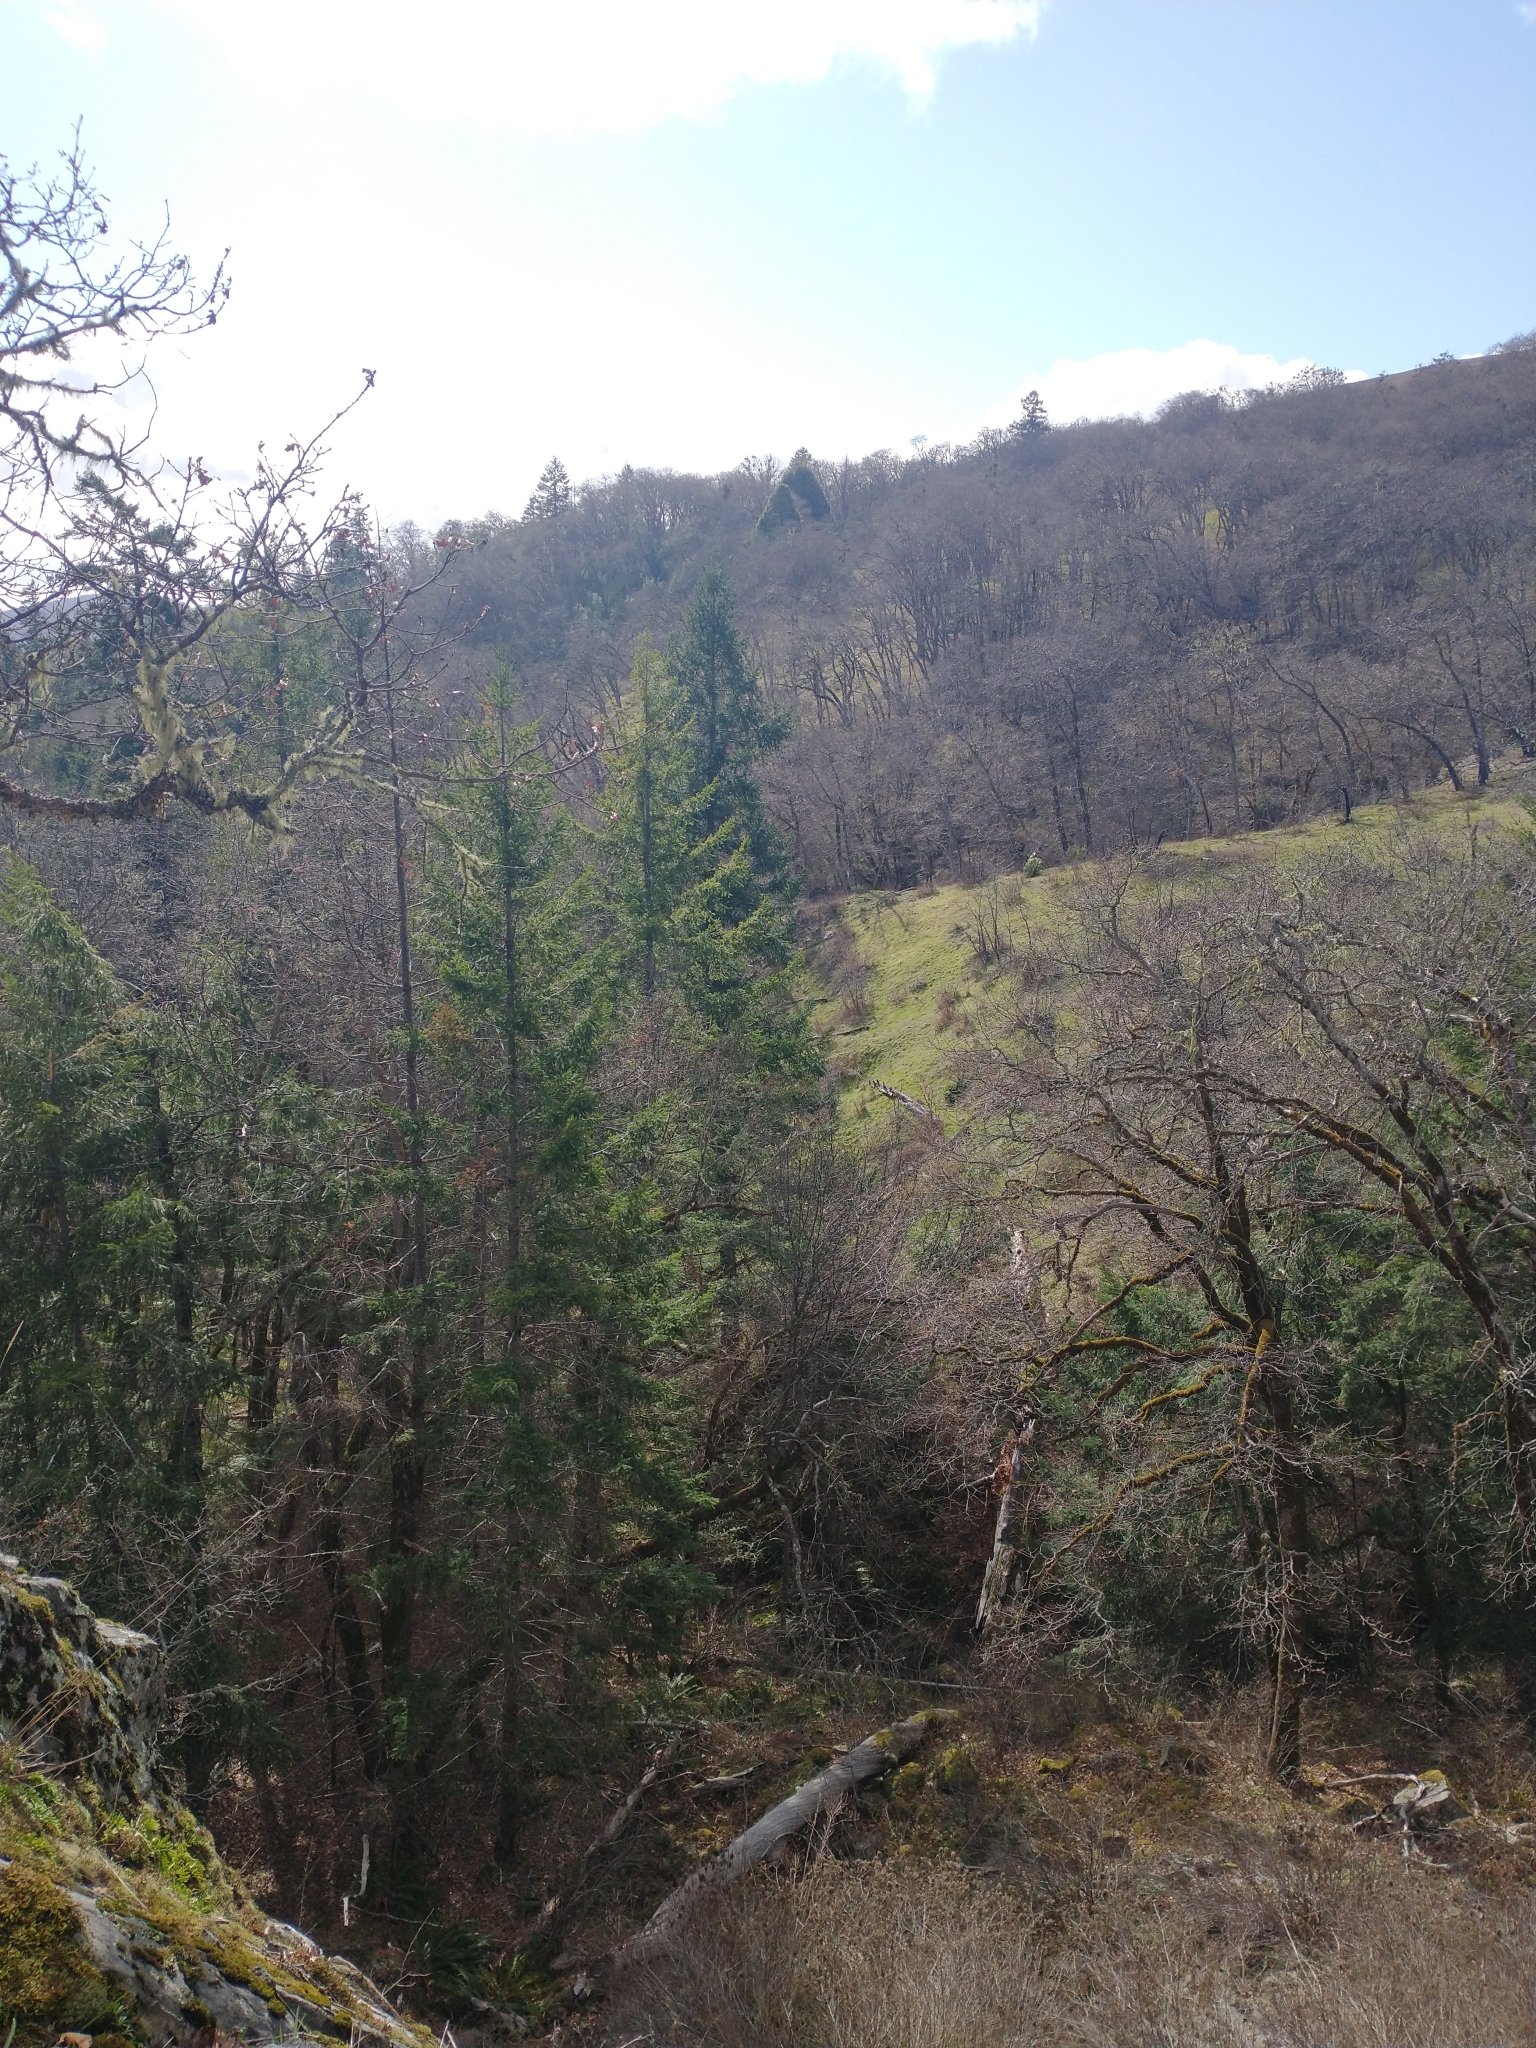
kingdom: Plantae
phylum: Tracheophyta
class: Pinopsida
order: Pinales
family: Pinaceae
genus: Pseudotsuga
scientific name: Pseudotsuga menziesii
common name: Douglas fir
